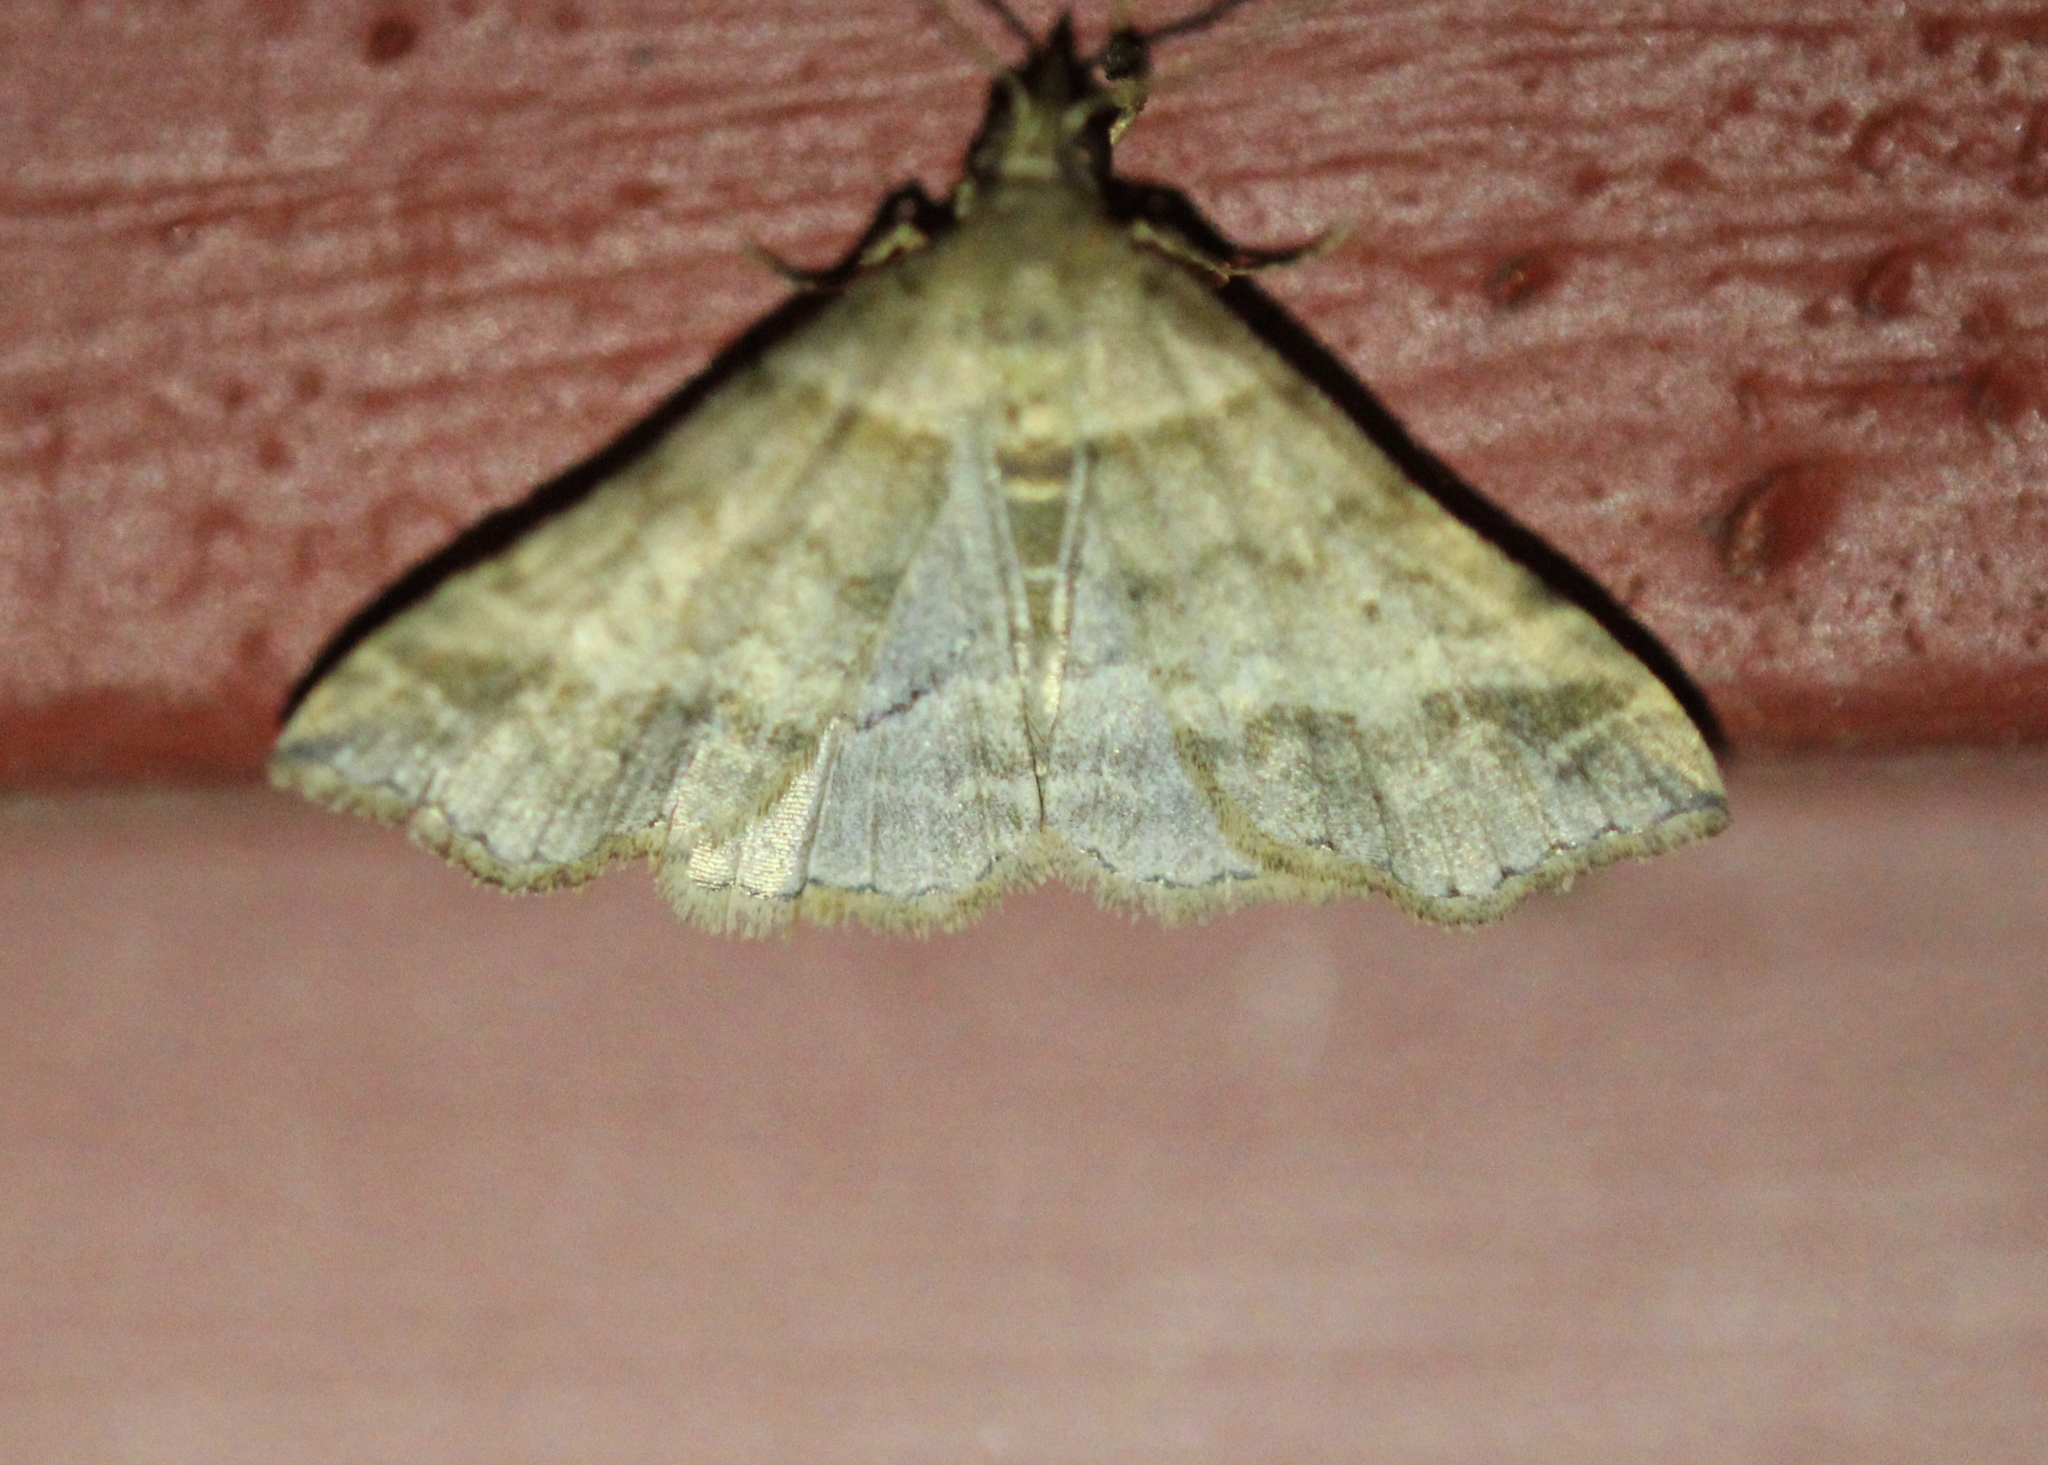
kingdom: Animalia
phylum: Arthropoda
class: Insecta
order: Lepidoptera
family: Erebidae
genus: Phaeolita
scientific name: Phaeolita pyramusalis
